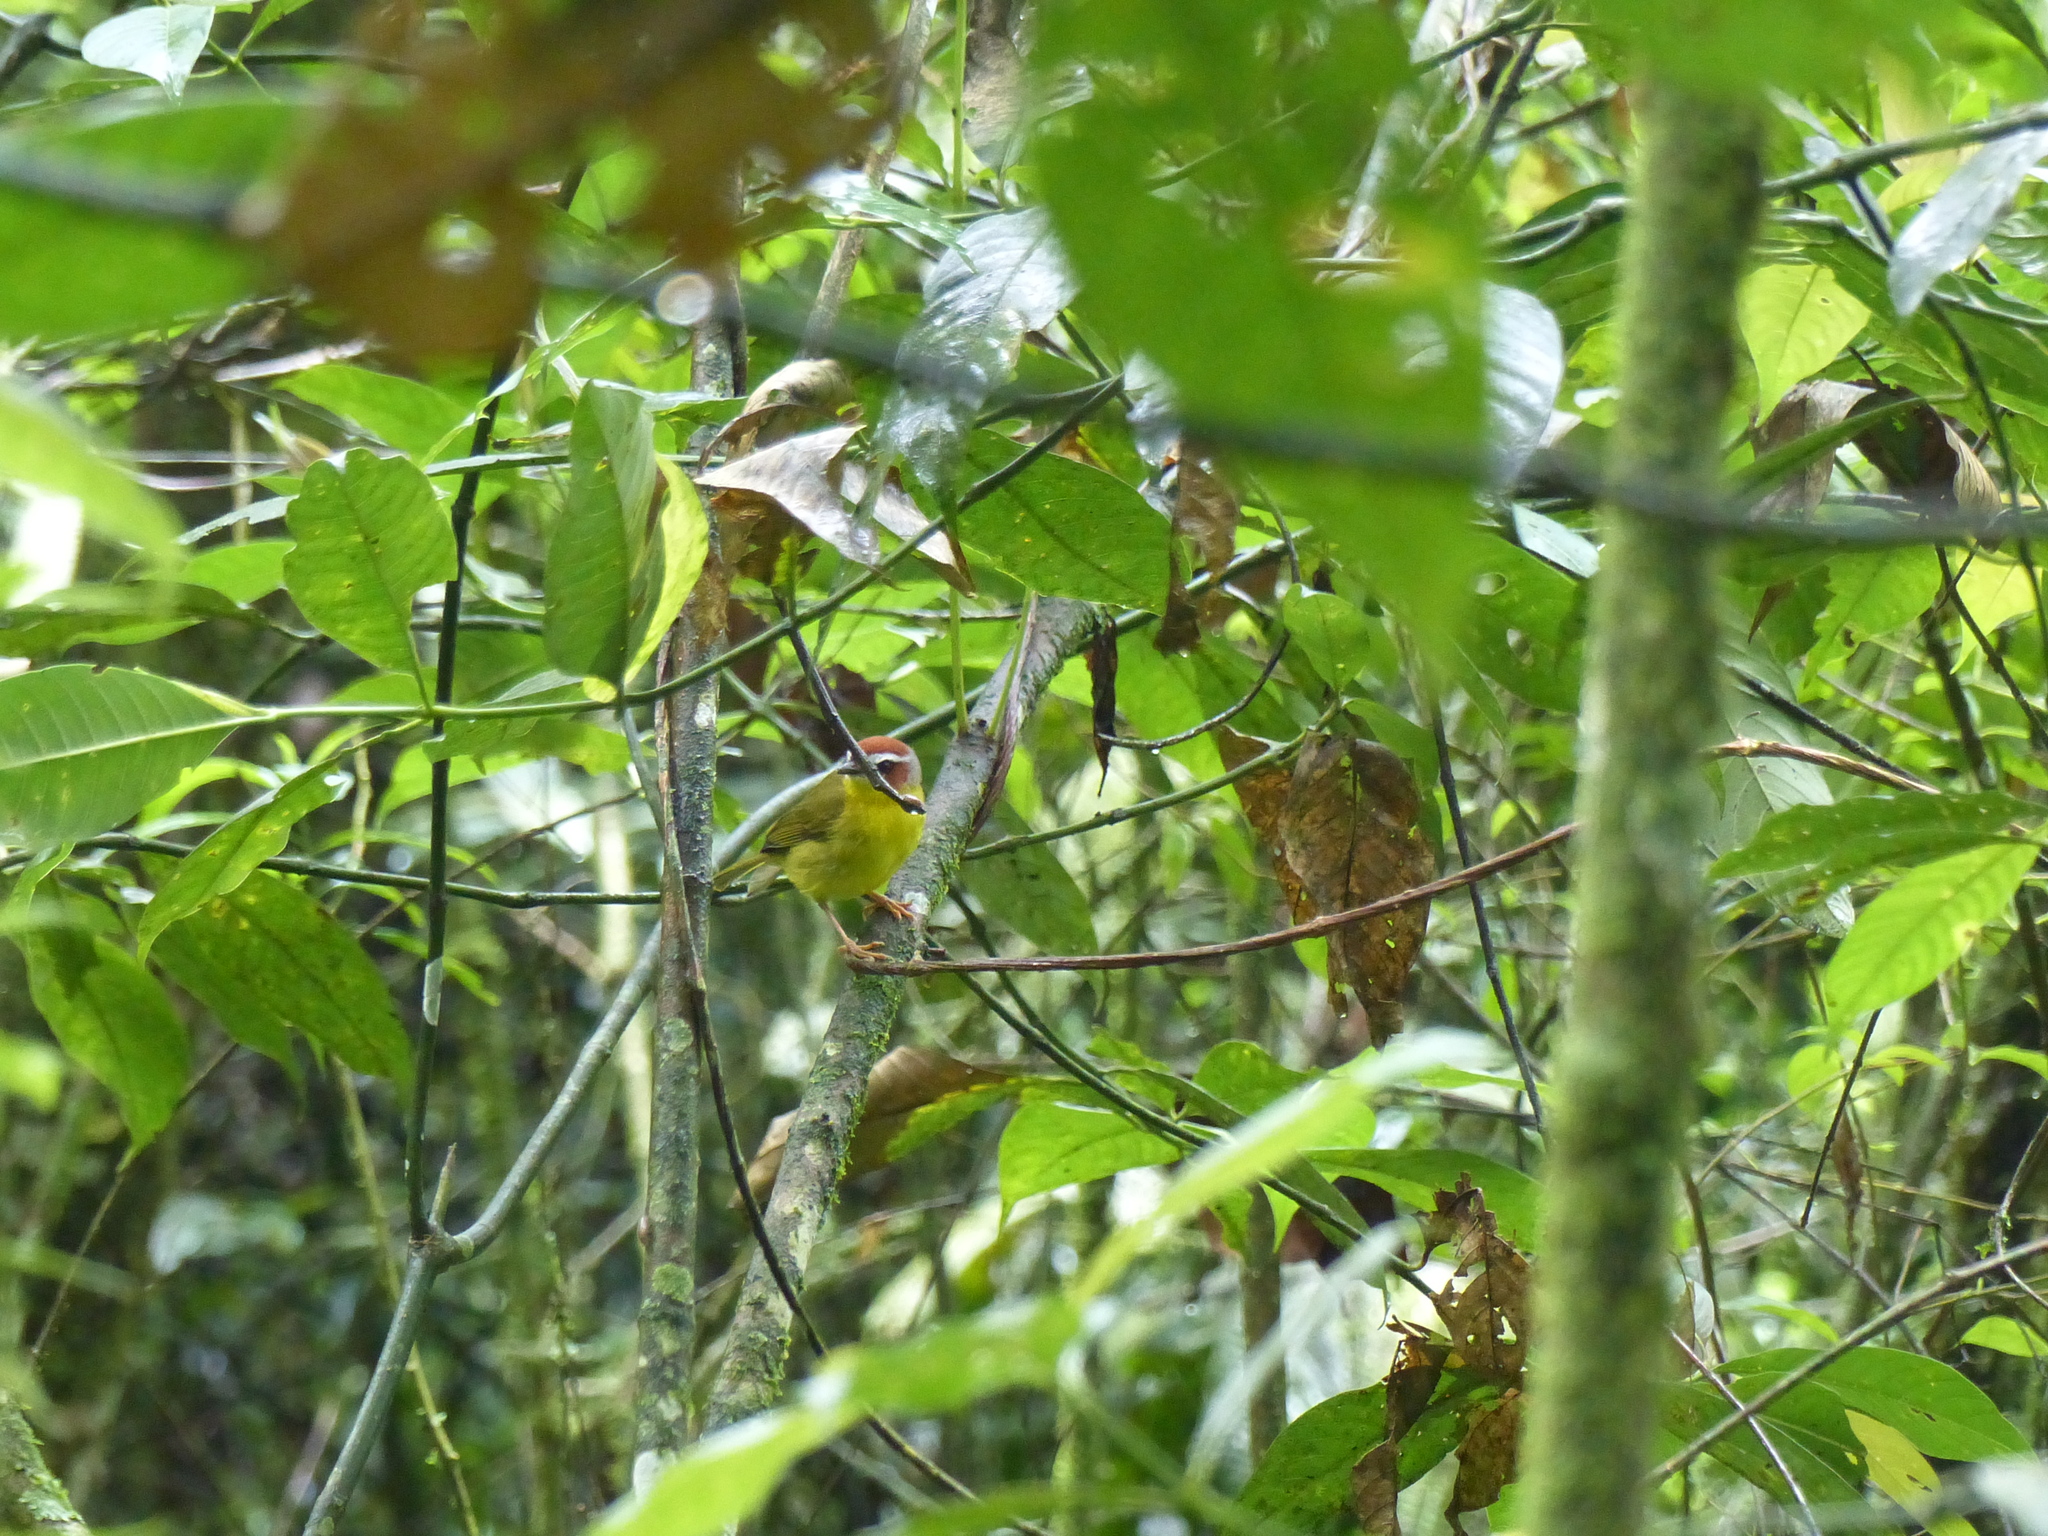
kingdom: Animalia
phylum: Chordata
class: Aves
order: Passeriformes
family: Parulidae
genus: Basileuterus
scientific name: Basileuterus rufifrons
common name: Rufous-capped warbler
